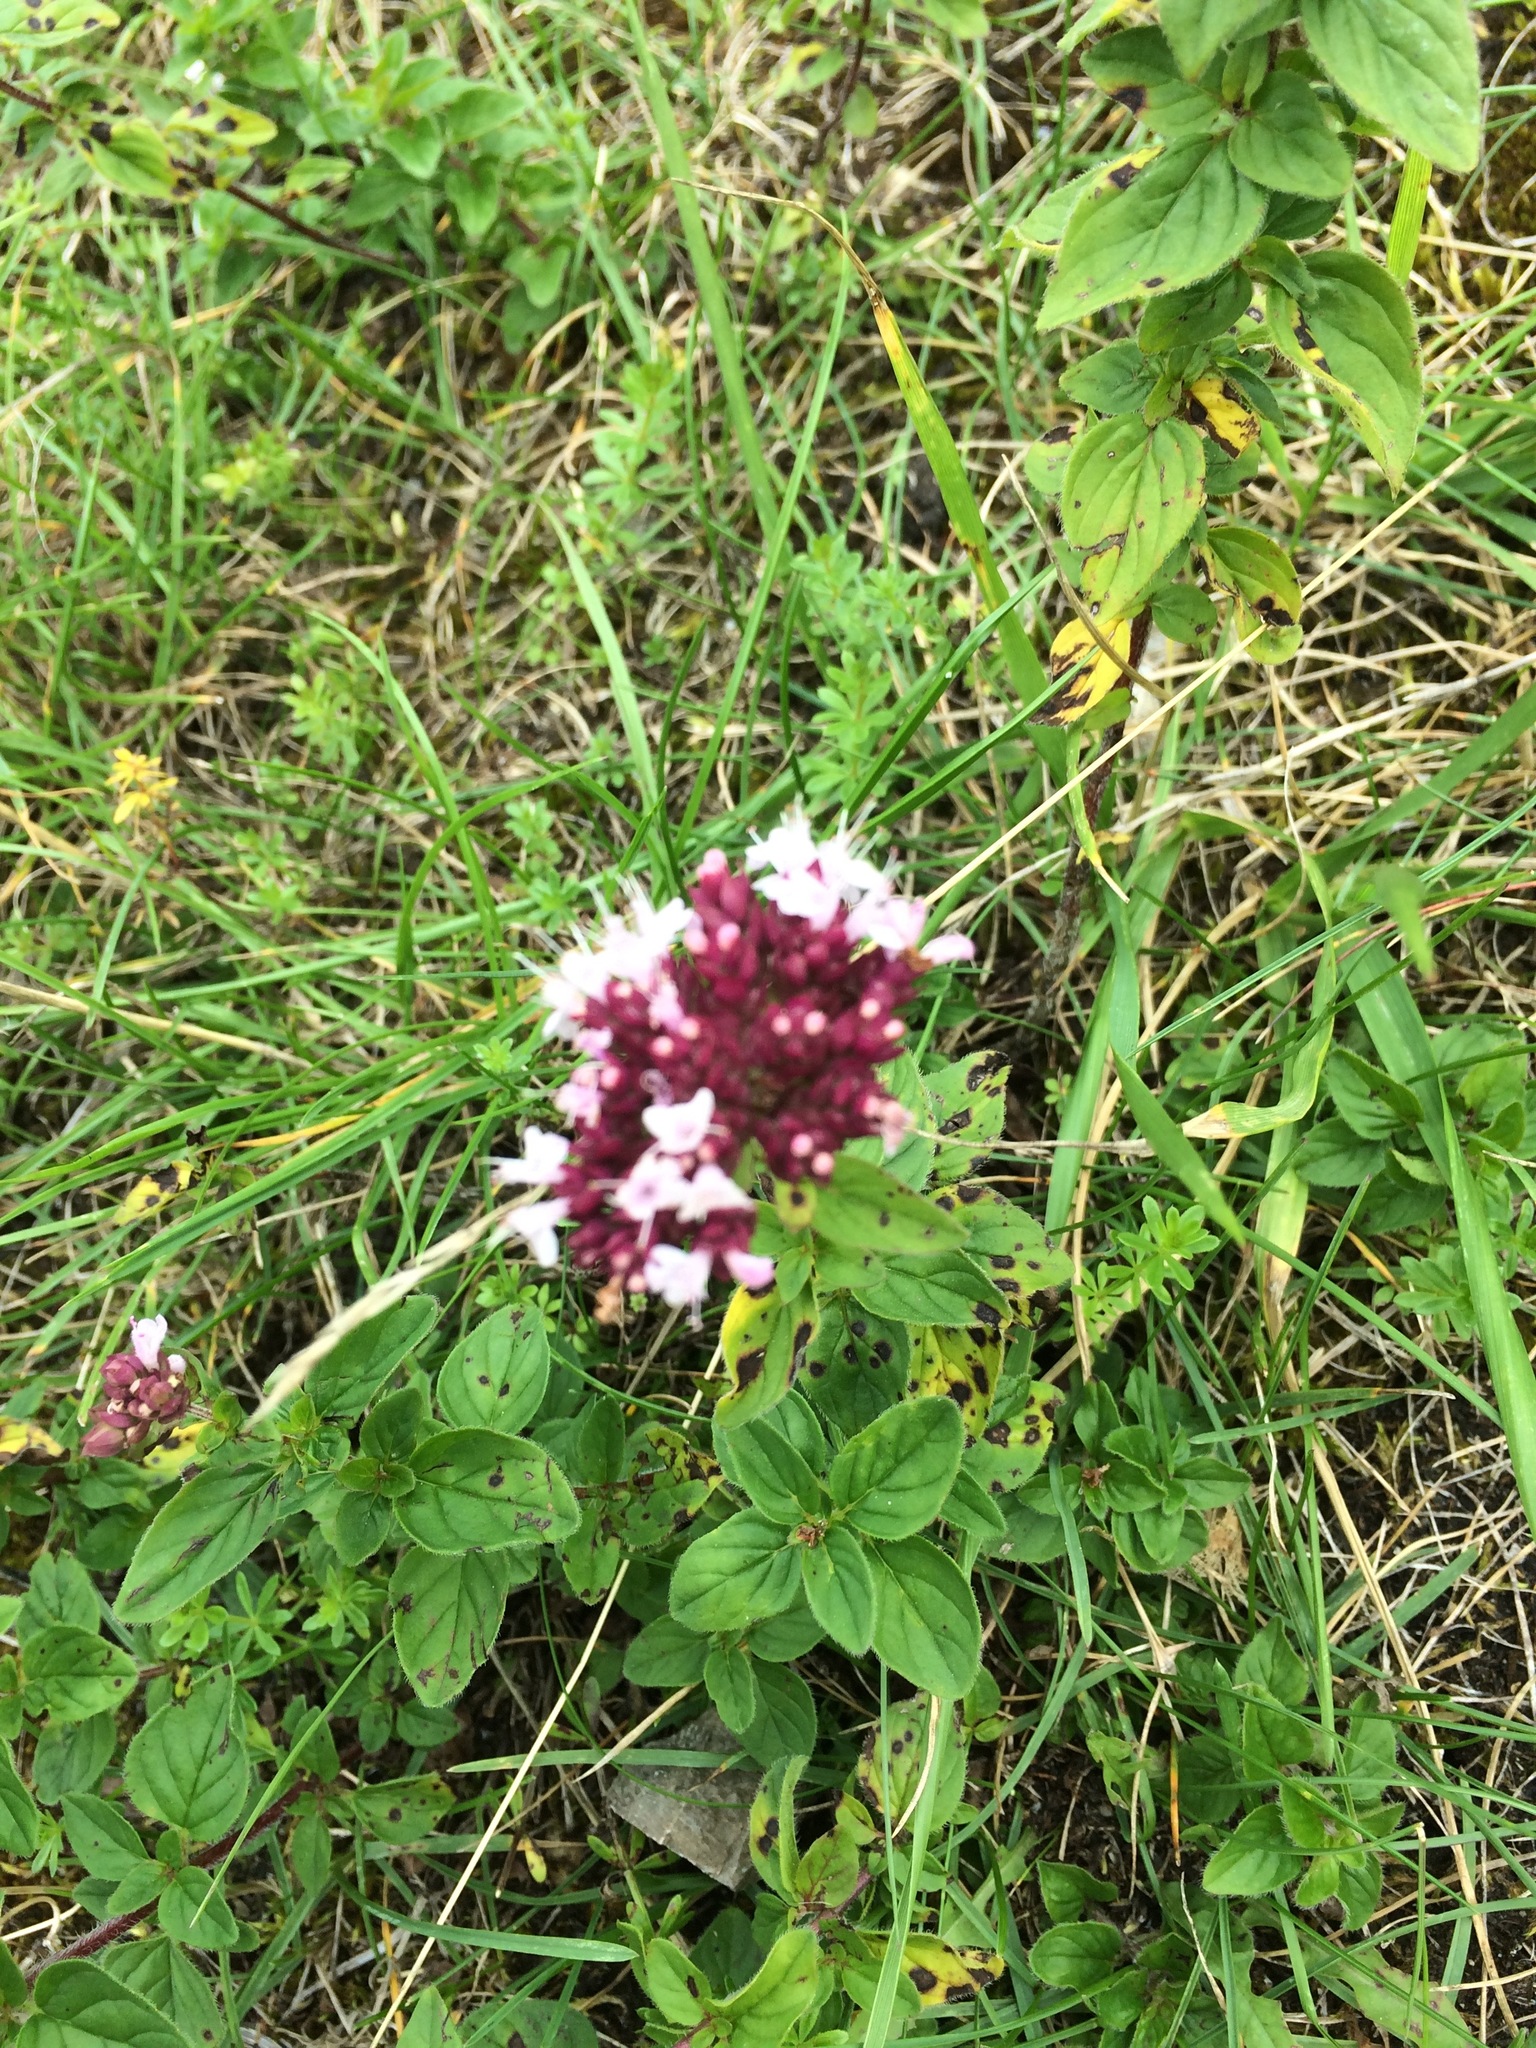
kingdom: Plantae
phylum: Tracheophyta
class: Magnoliopsida
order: Lamiales
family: Lamiaceae
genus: Origanum
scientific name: Origanum vulgare
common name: Wild marjoram
